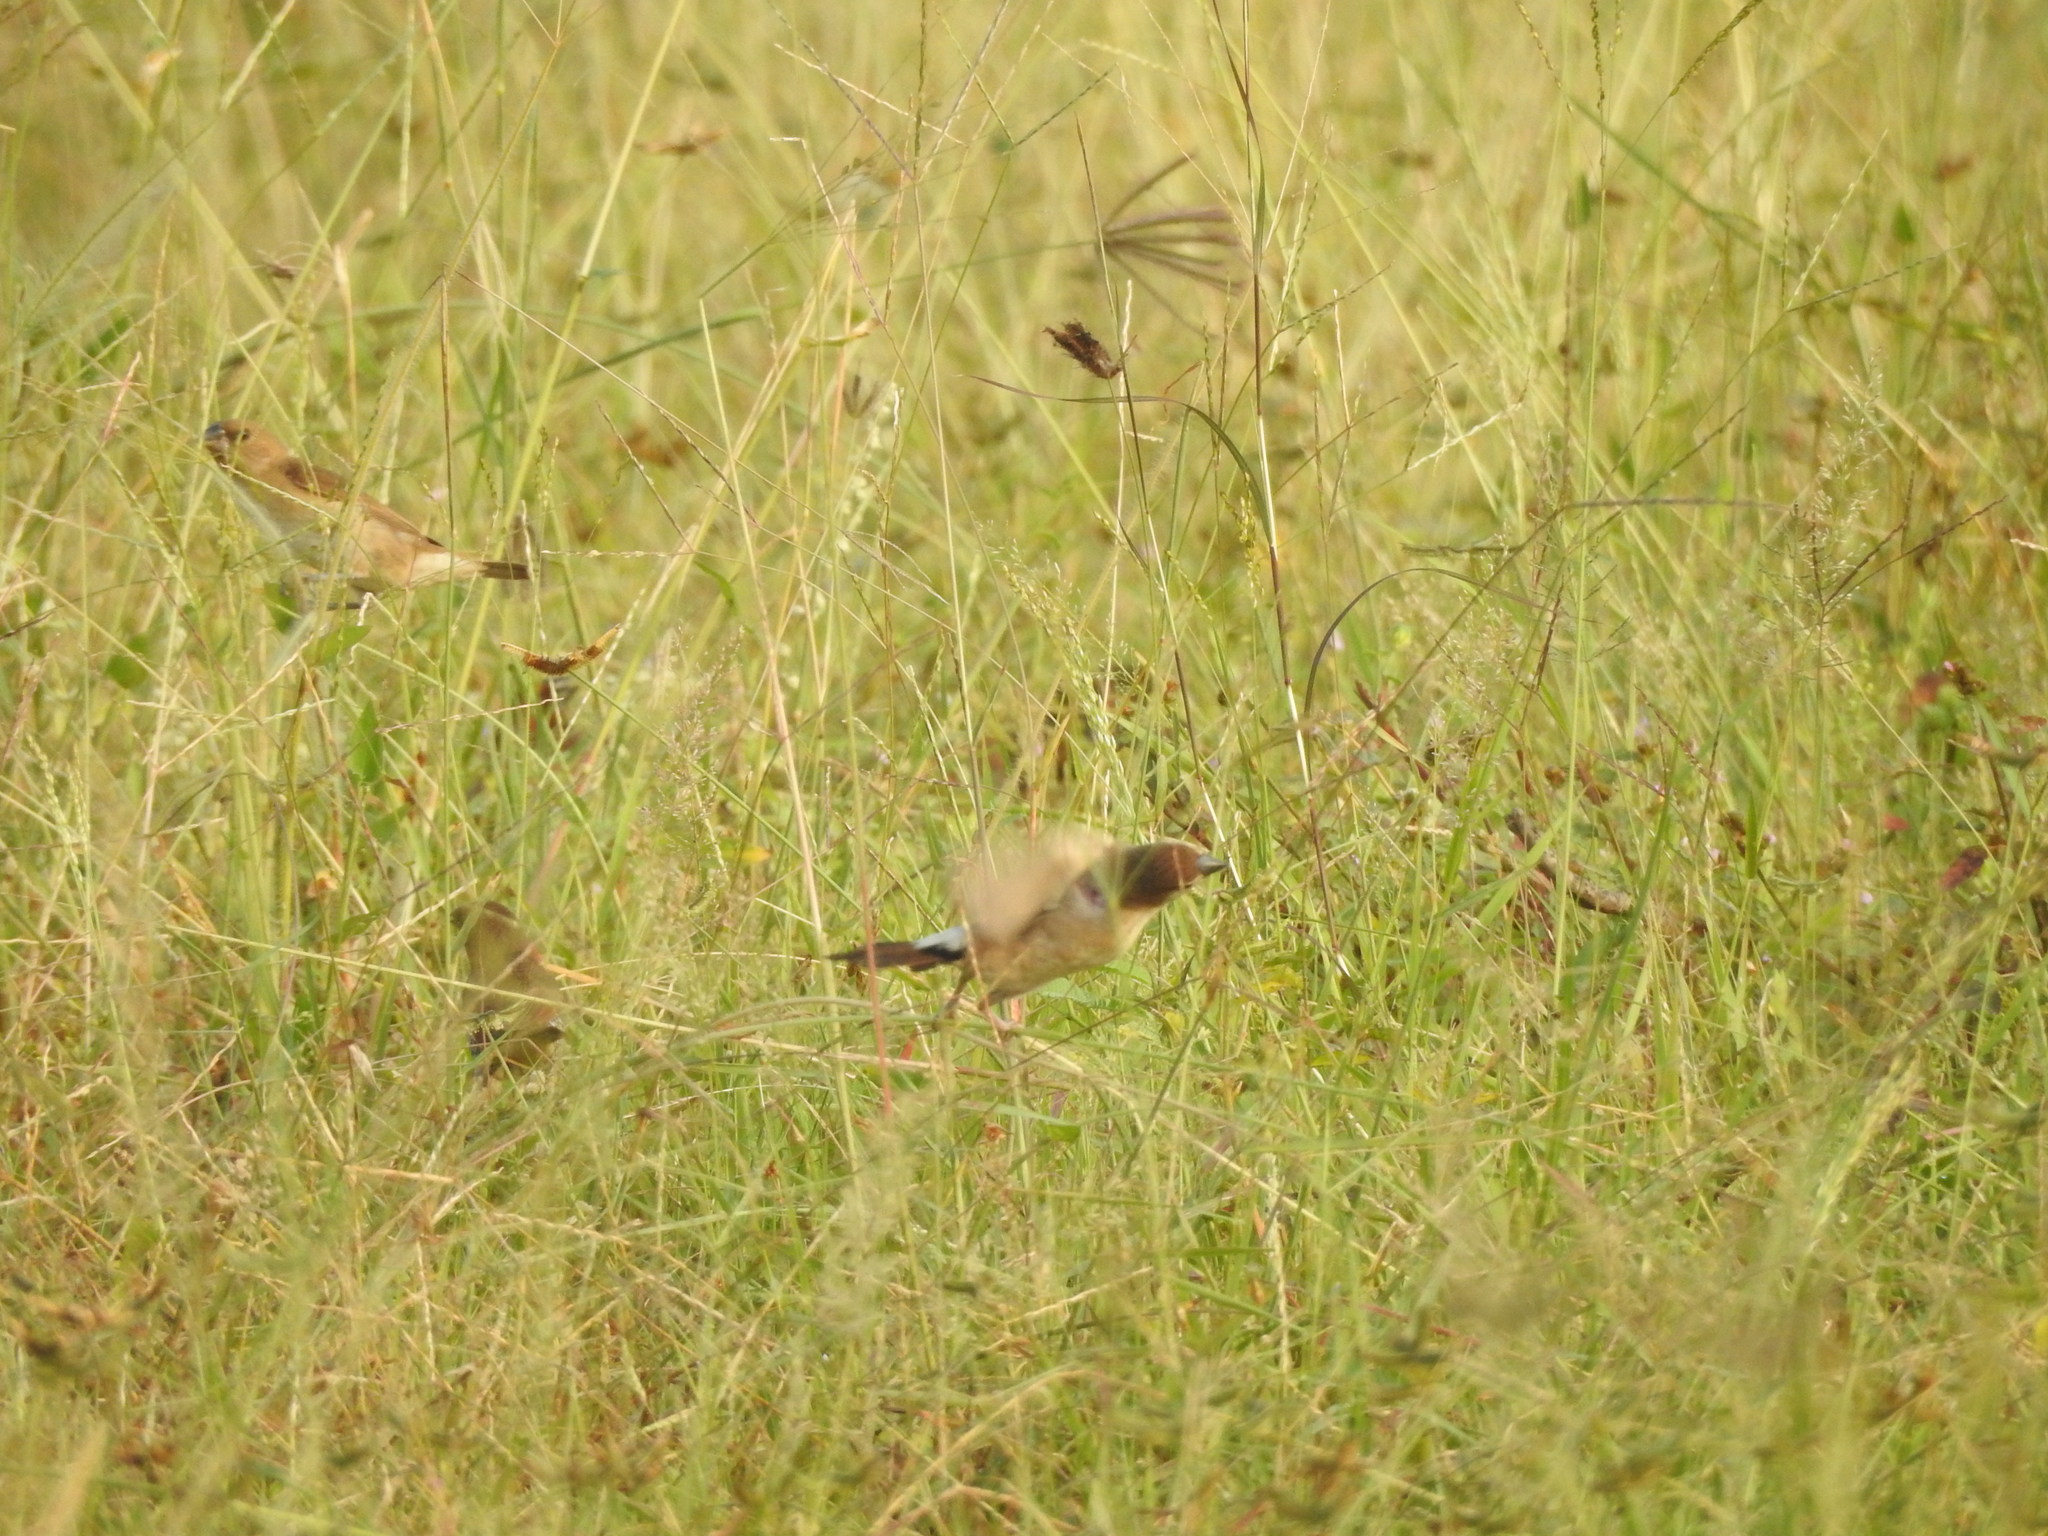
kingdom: Animalia
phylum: Chordata
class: Aves
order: Passeriformes
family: Estrildidae
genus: Euodice
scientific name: Euodice malabarica
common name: Indian silverbill
